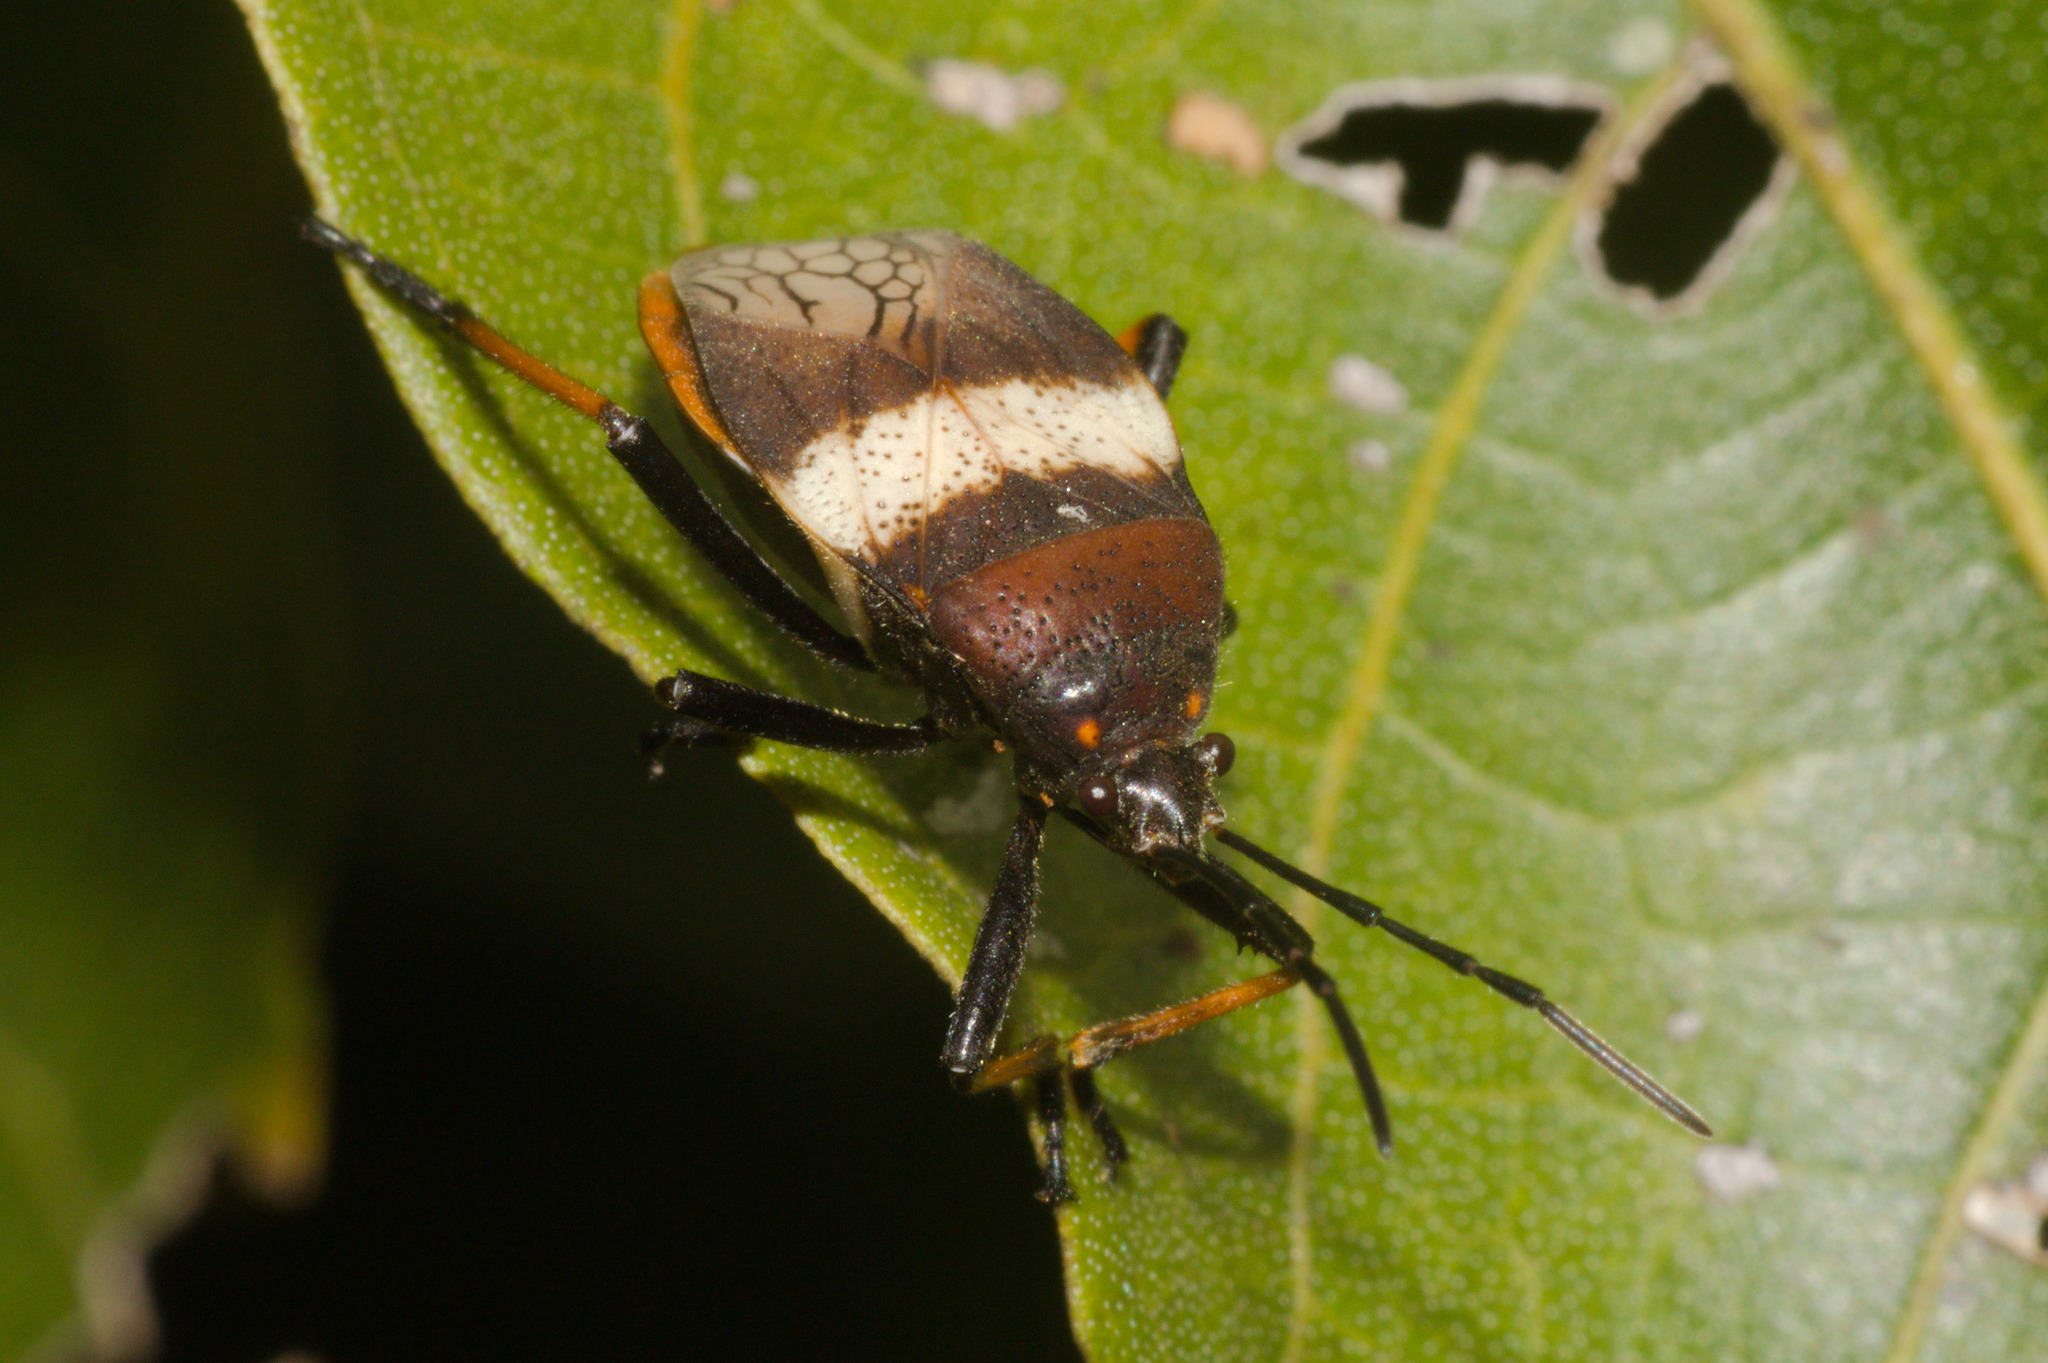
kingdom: Animalia
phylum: Arthropoda
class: Insecta
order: Hemiptera
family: Largidae
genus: Largus
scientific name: Largus balteatus
